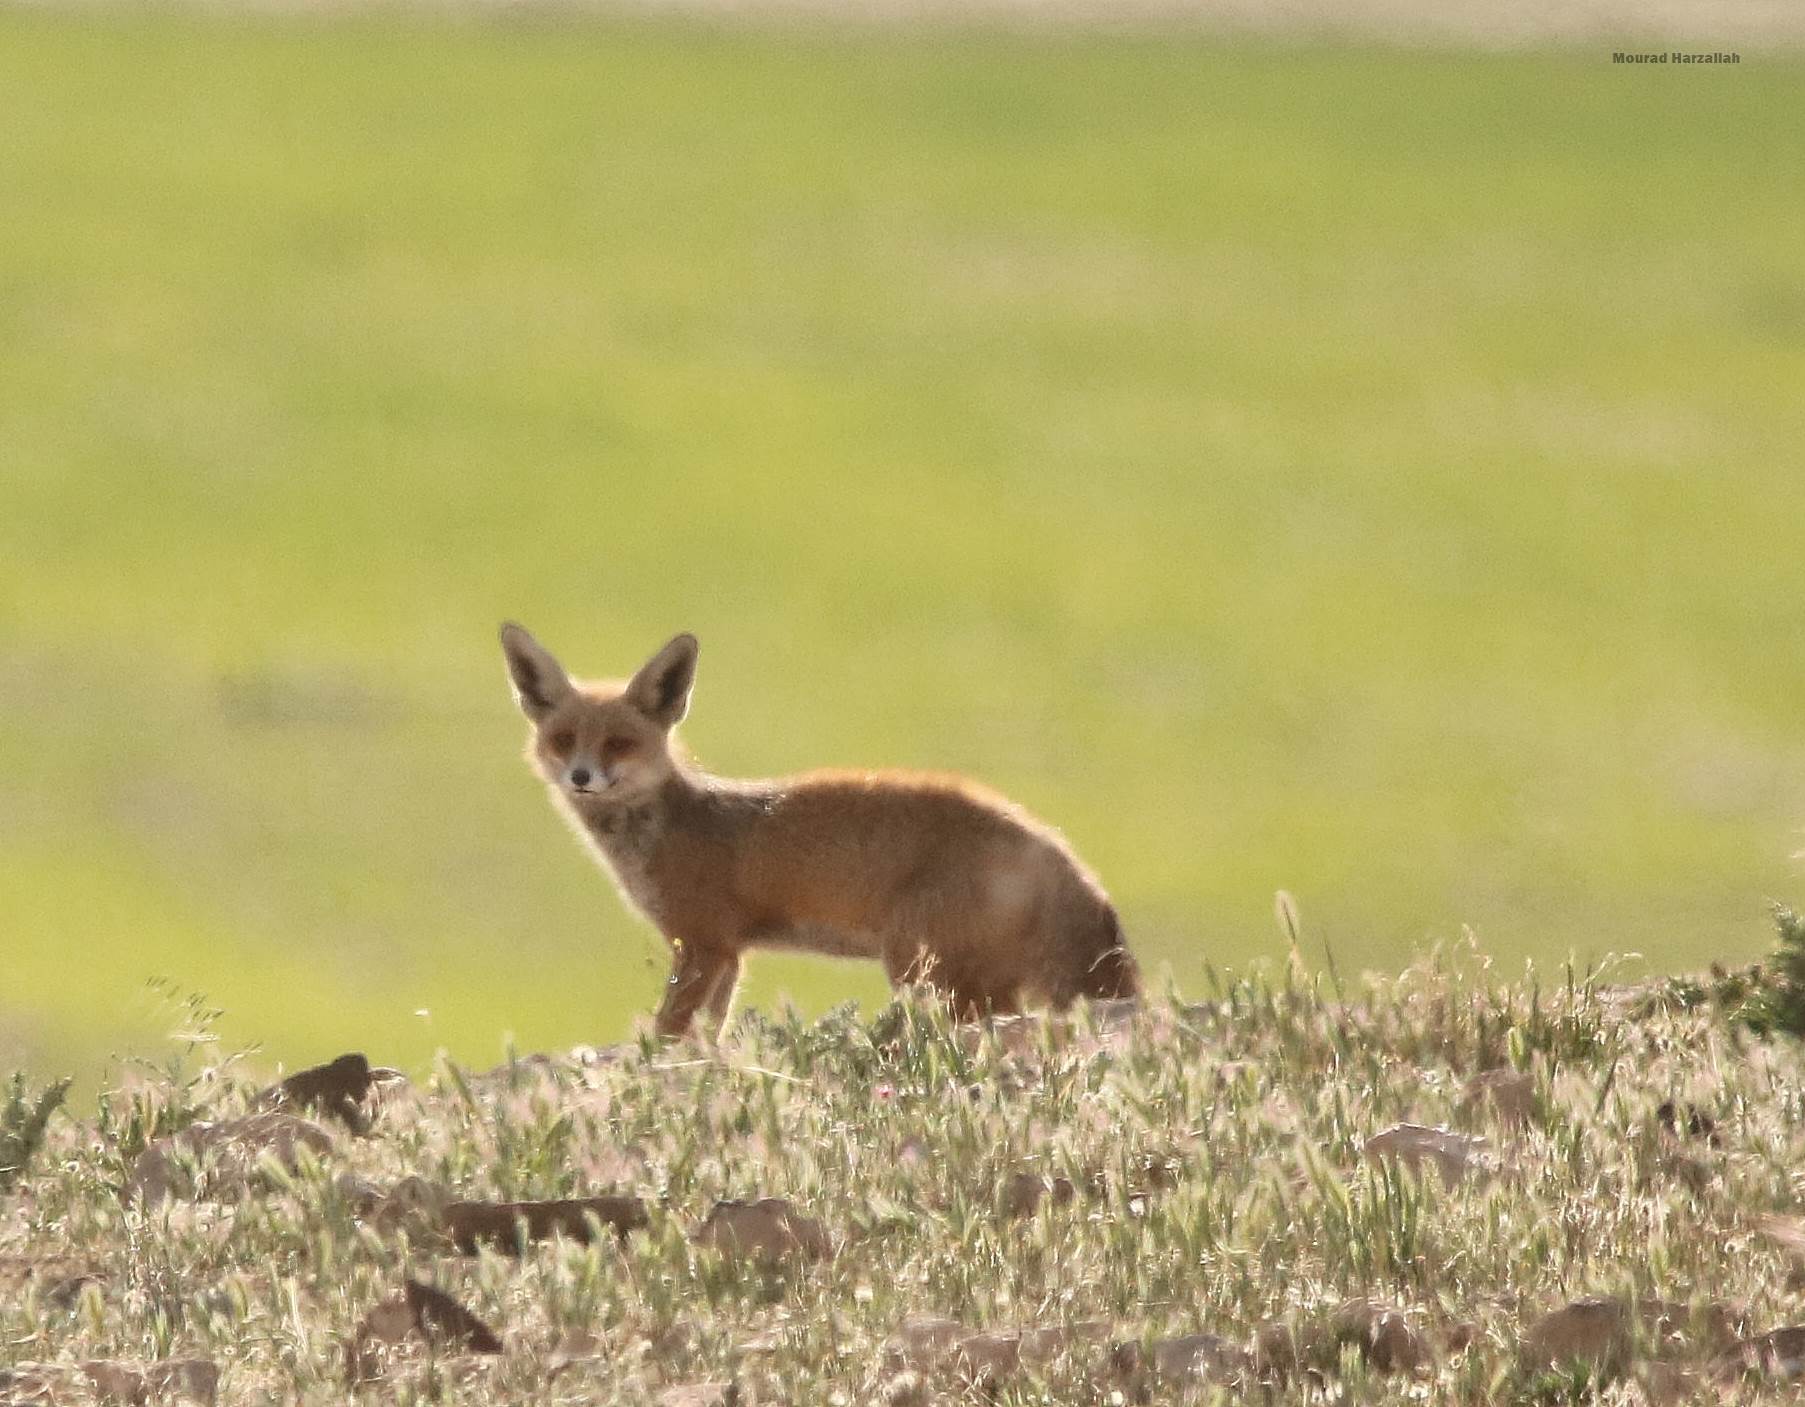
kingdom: Animalia
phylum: Chordata
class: Mammalia
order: Carnivora
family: Canidae
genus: Vulpes
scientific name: Vulpes vulpes
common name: Red fox
